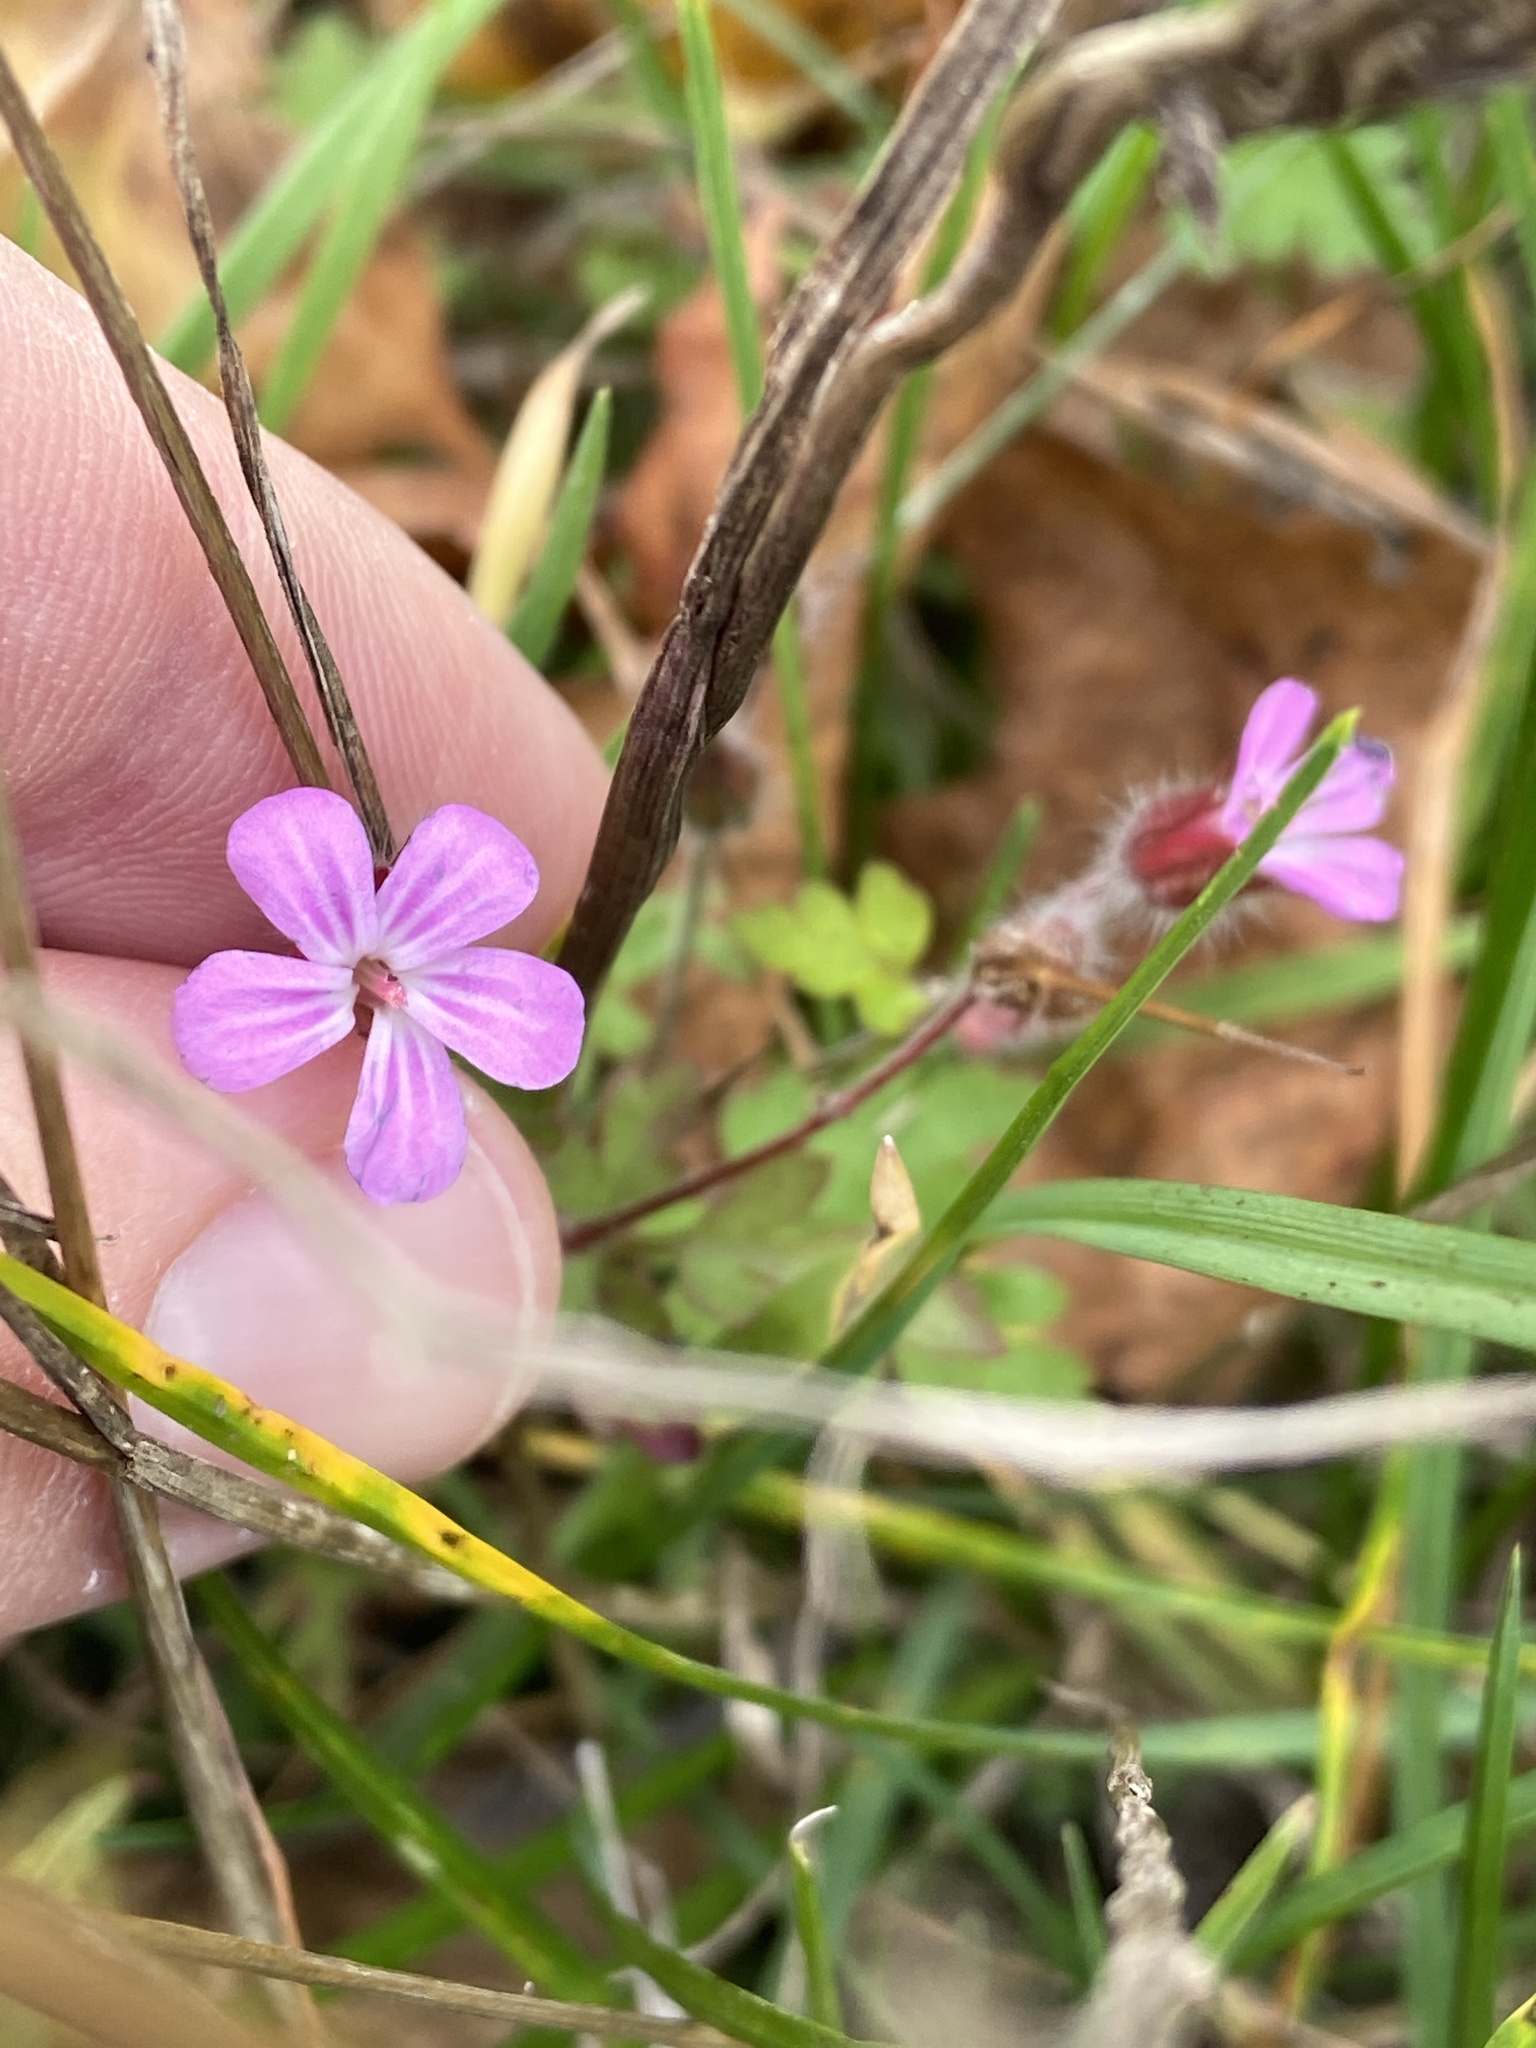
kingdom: Plantae
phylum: Tracheophyta
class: Magnoliopsida
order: Geraniales
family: Geraniaceae
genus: Geranium
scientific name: Geranium robertianum
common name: Herb-robert
